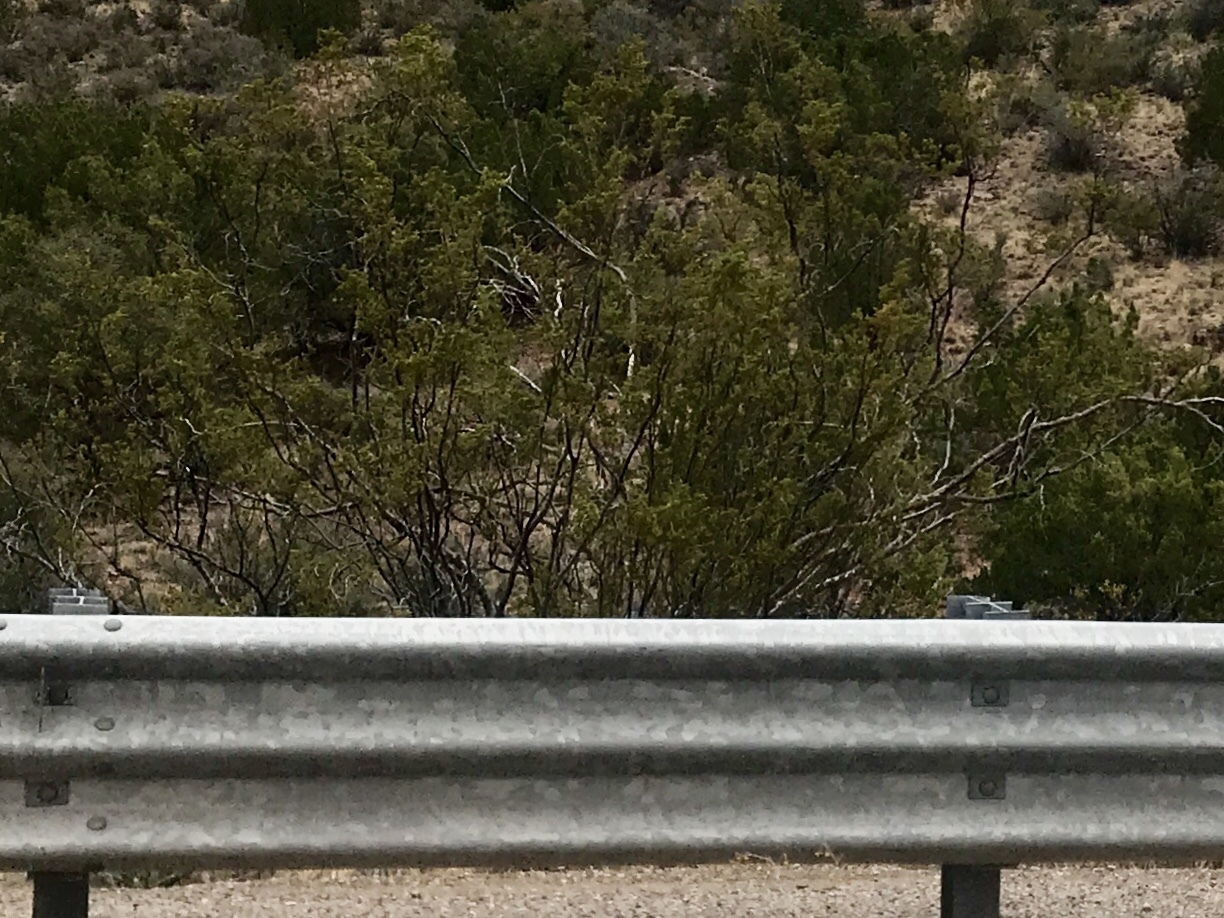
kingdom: Plantae
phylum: Tracheophyta
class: Magnoliopsida
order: Zygophyllales
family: Zygophyllaceae
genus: Larrea
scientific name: Larrea tridentata
